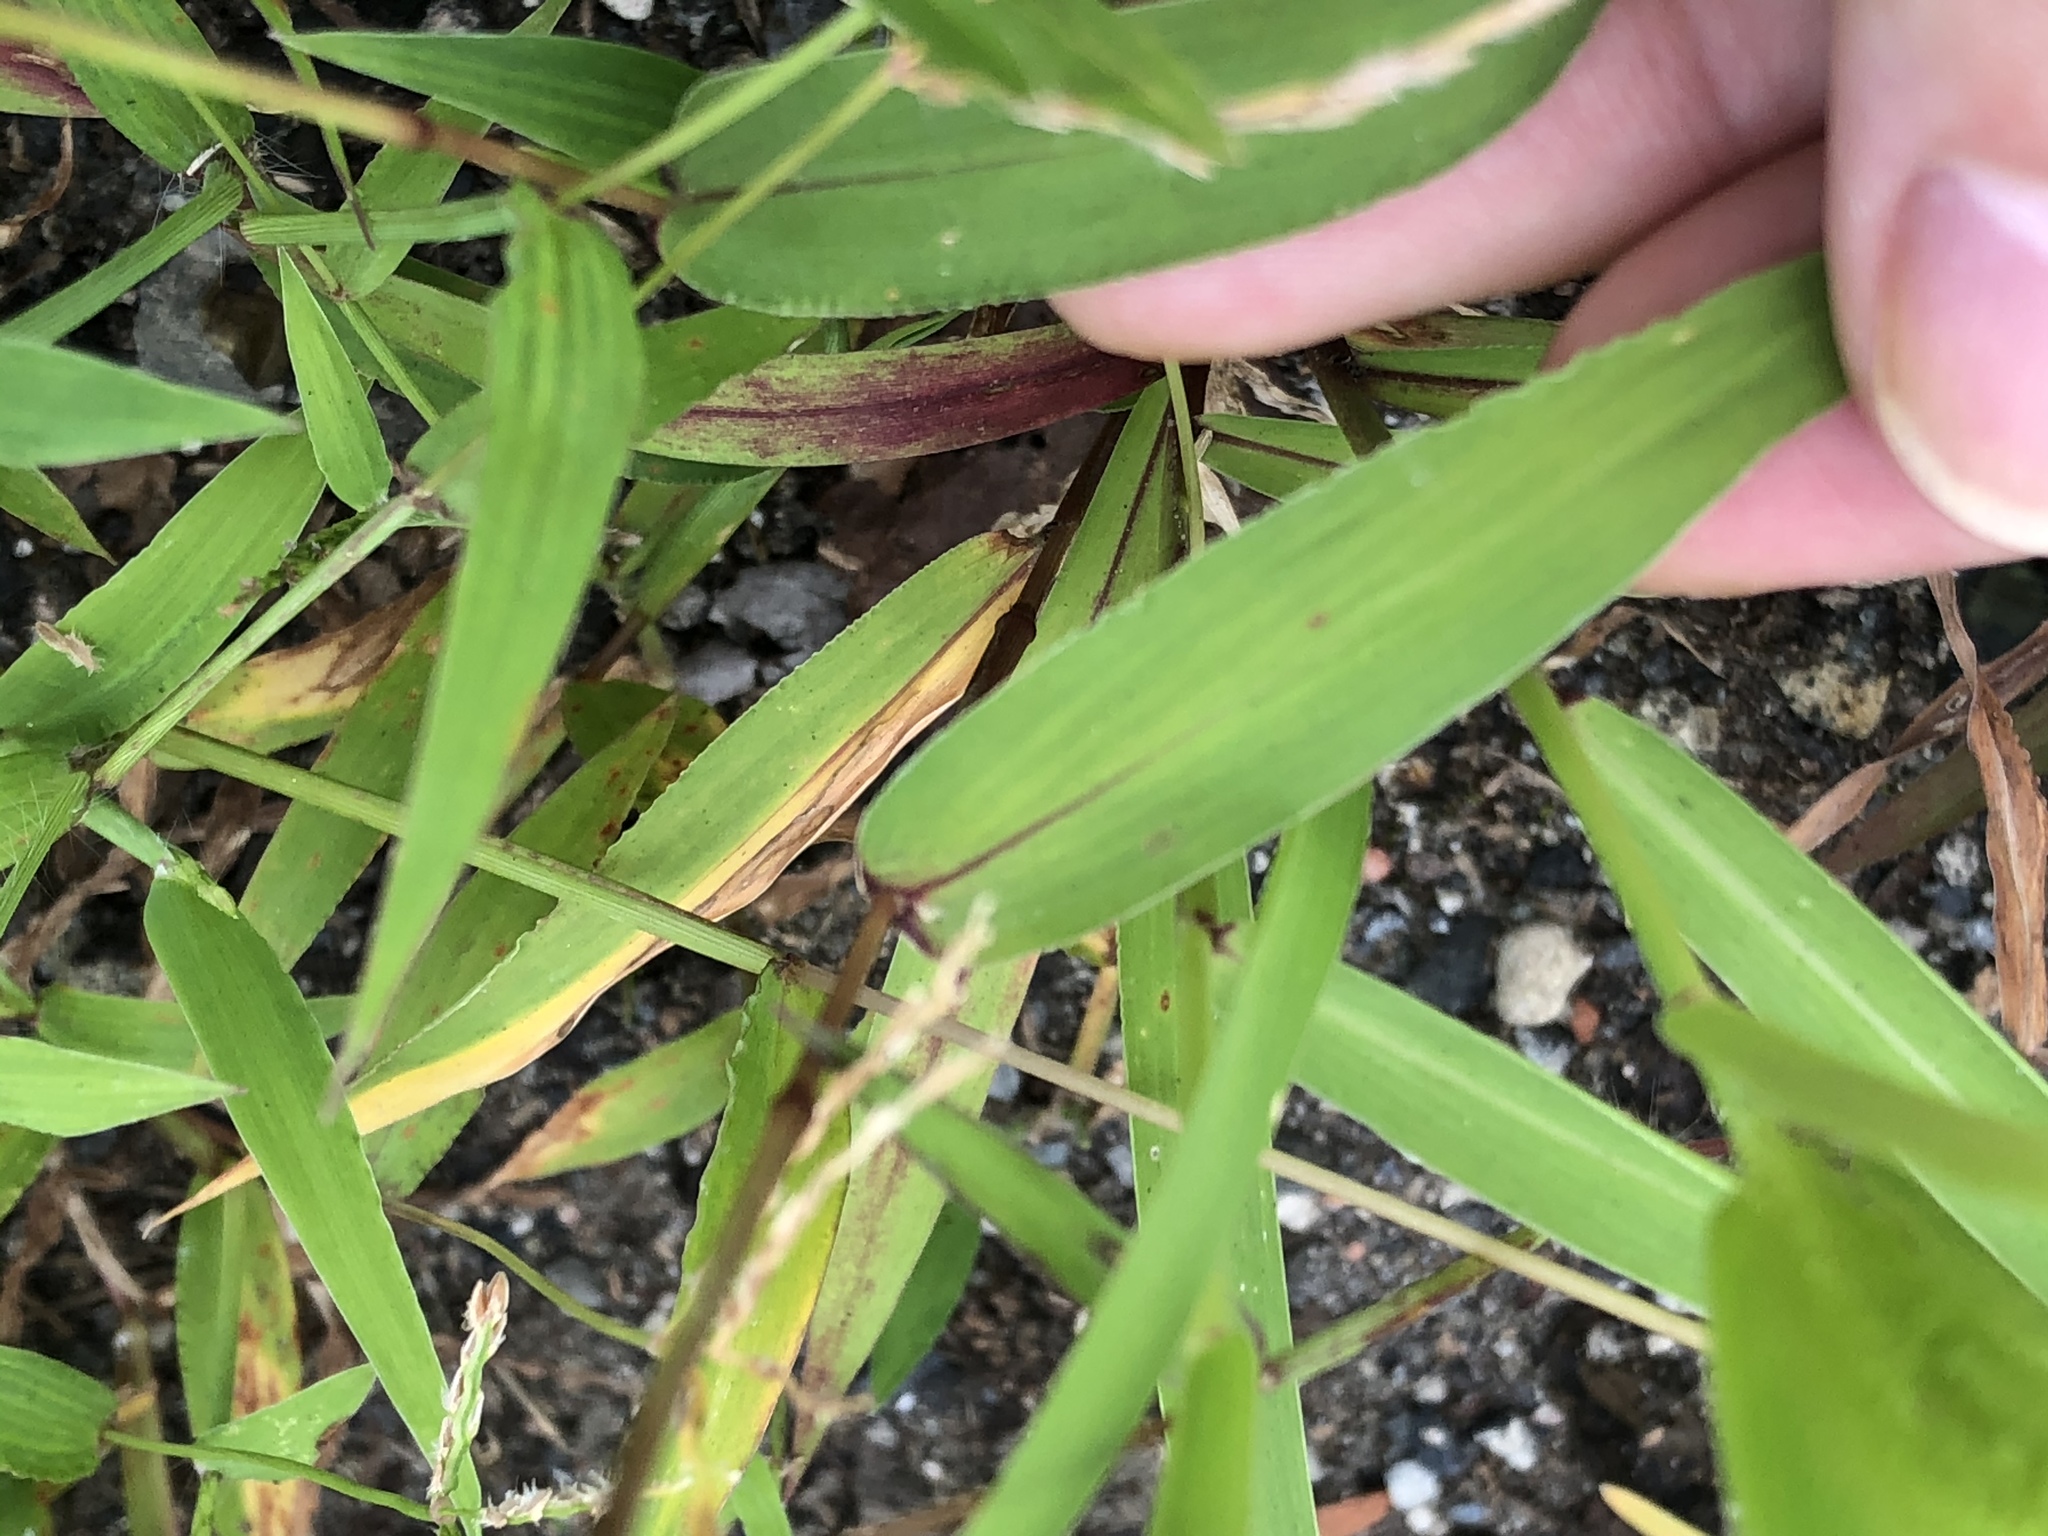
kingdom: Plantae
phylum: Tracheophyta
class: Liliopsida
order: Poales
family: Poaceae
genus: Setaria
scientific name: Setaria viridis
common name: Green bristlegrass
